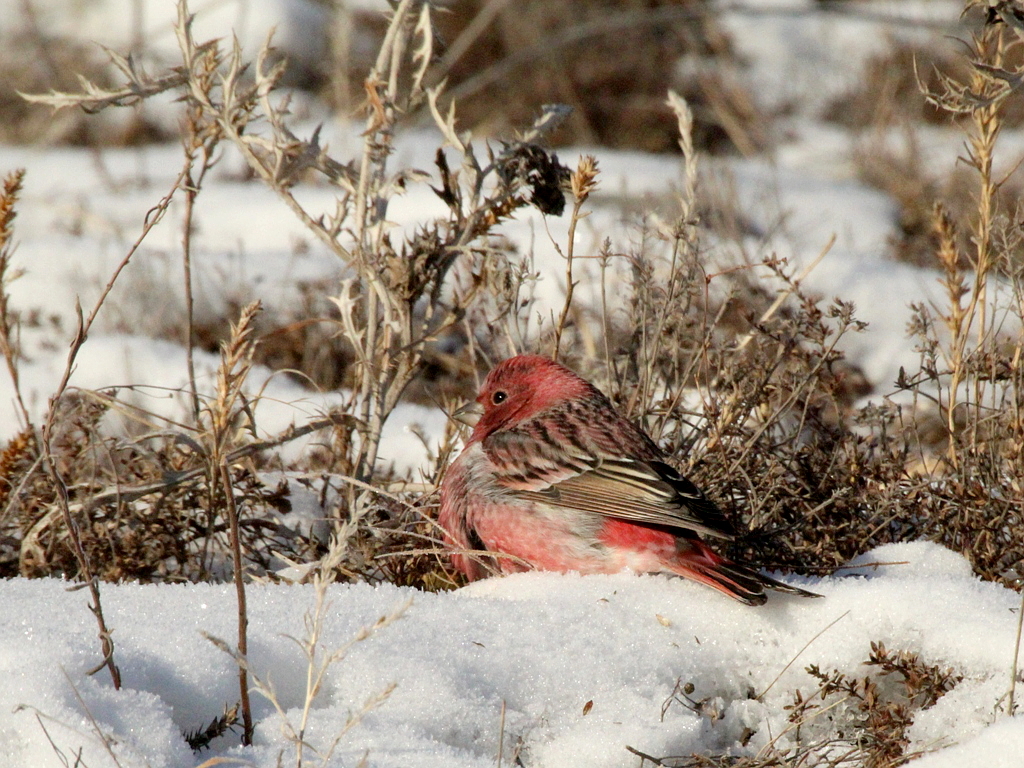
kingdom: Animalia
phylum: Chordata
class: Aves
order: Passeriformes
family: Fringillidae
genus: Carpodacus
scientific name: Carpodacus roseus
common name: Pallas's rosefinch
